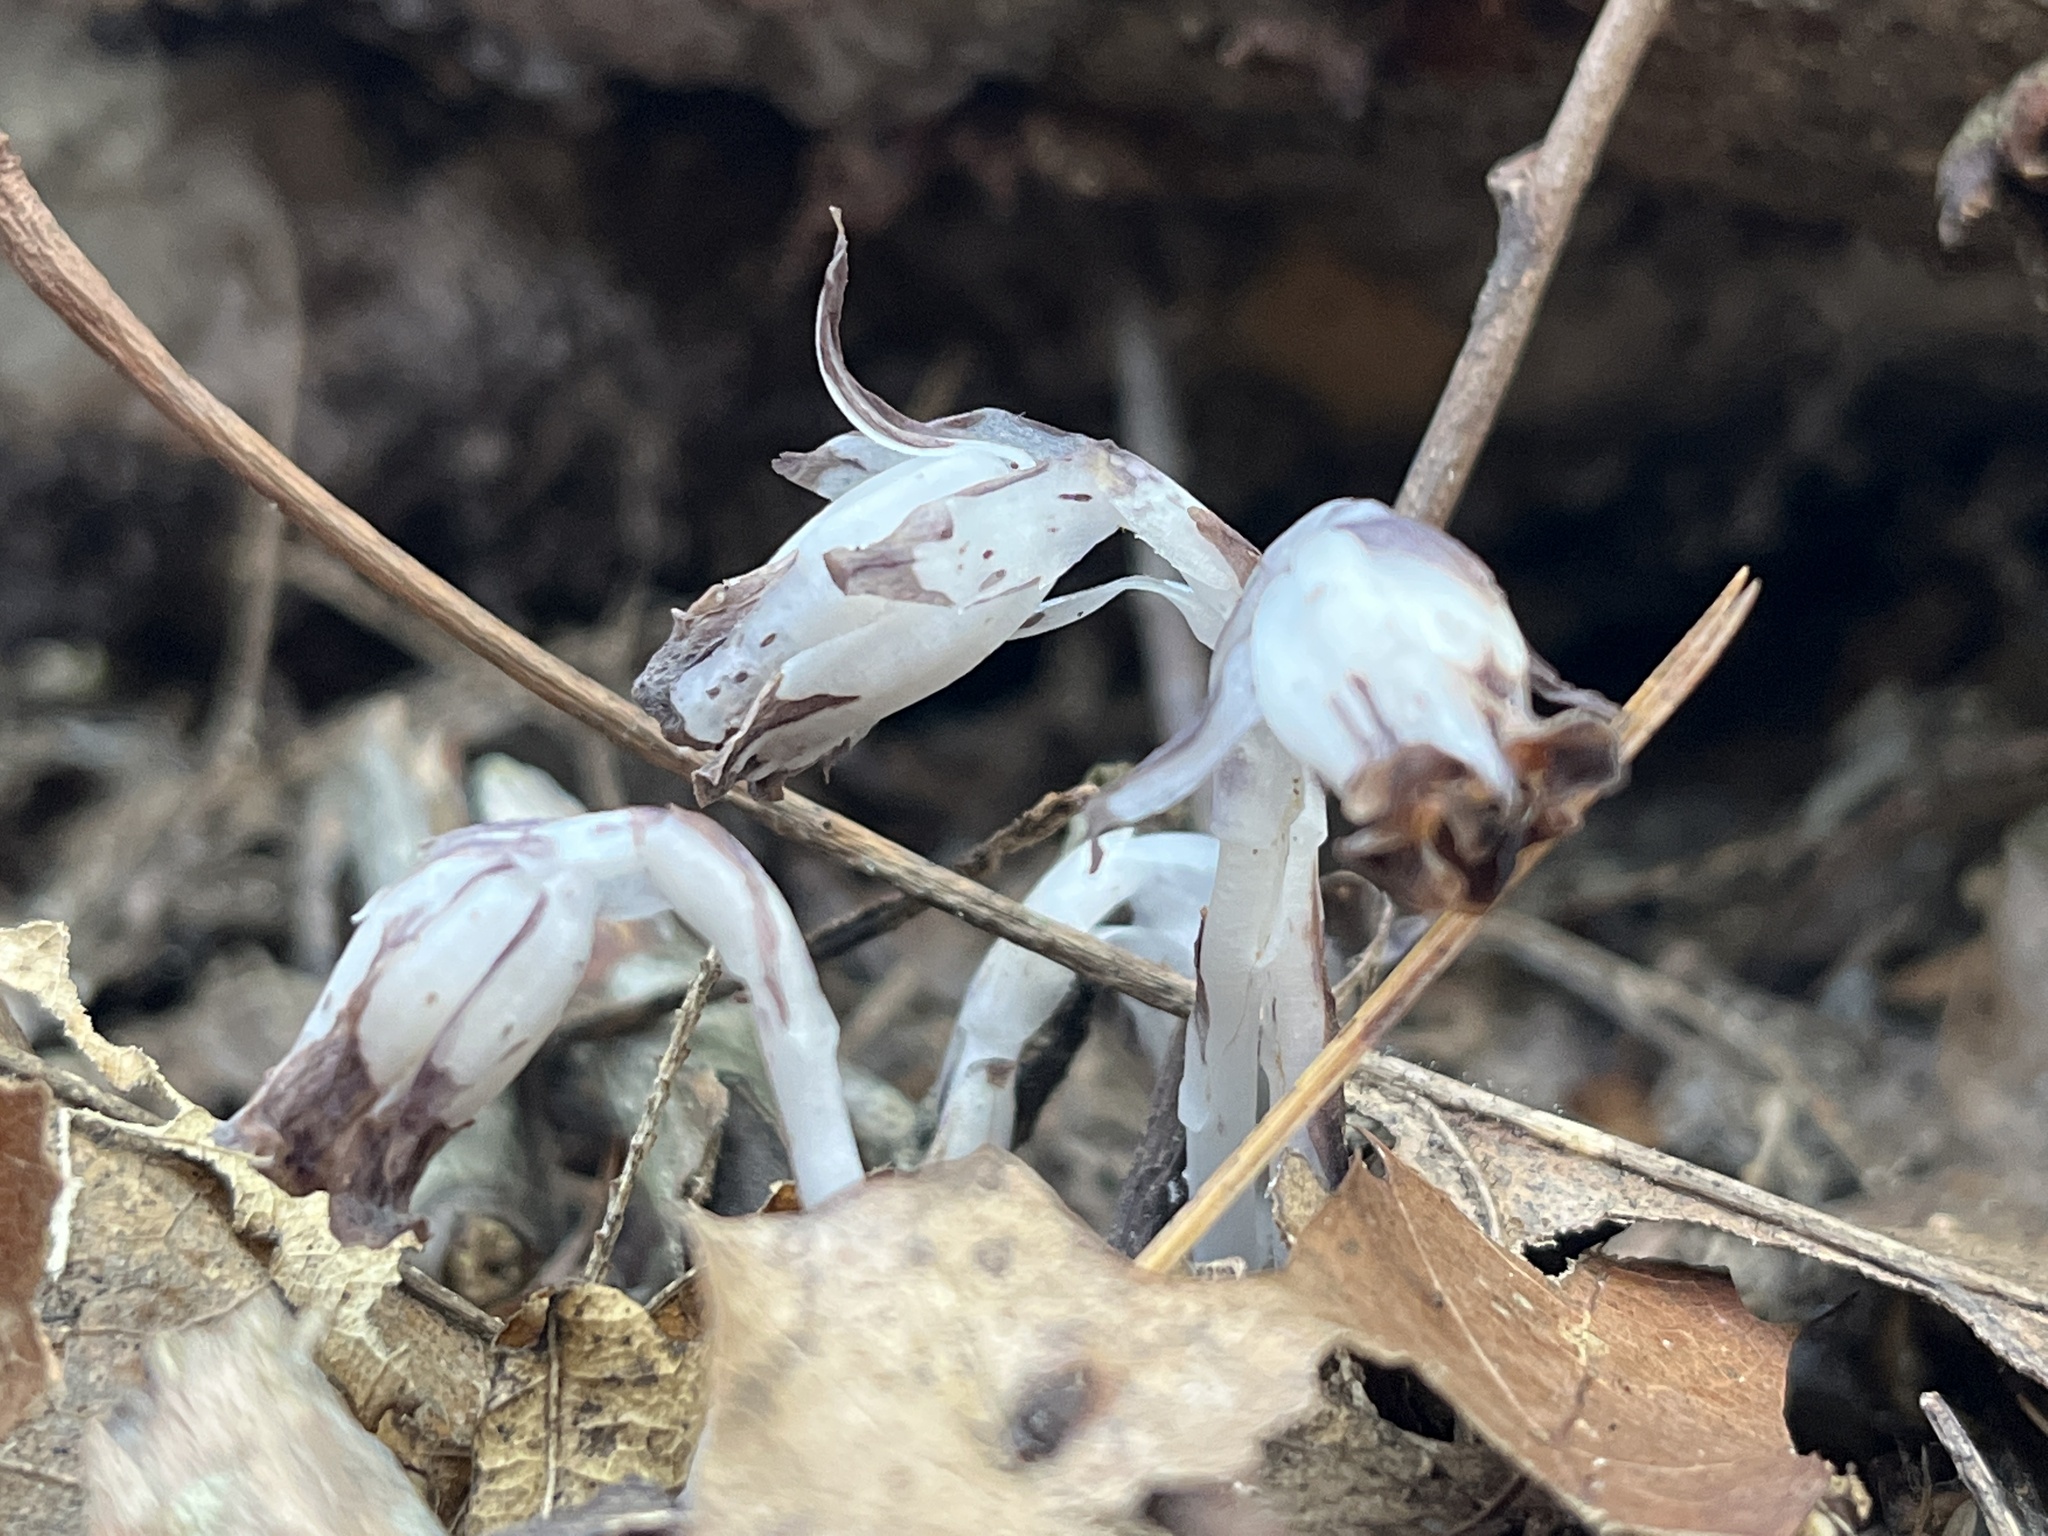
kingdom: Plantae
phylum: Tracheophyta
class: Magnoliopsida
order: Ericales
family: Ericaceae
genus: Monotropa
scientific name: Monotropa uniflora
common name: Convulsion root
